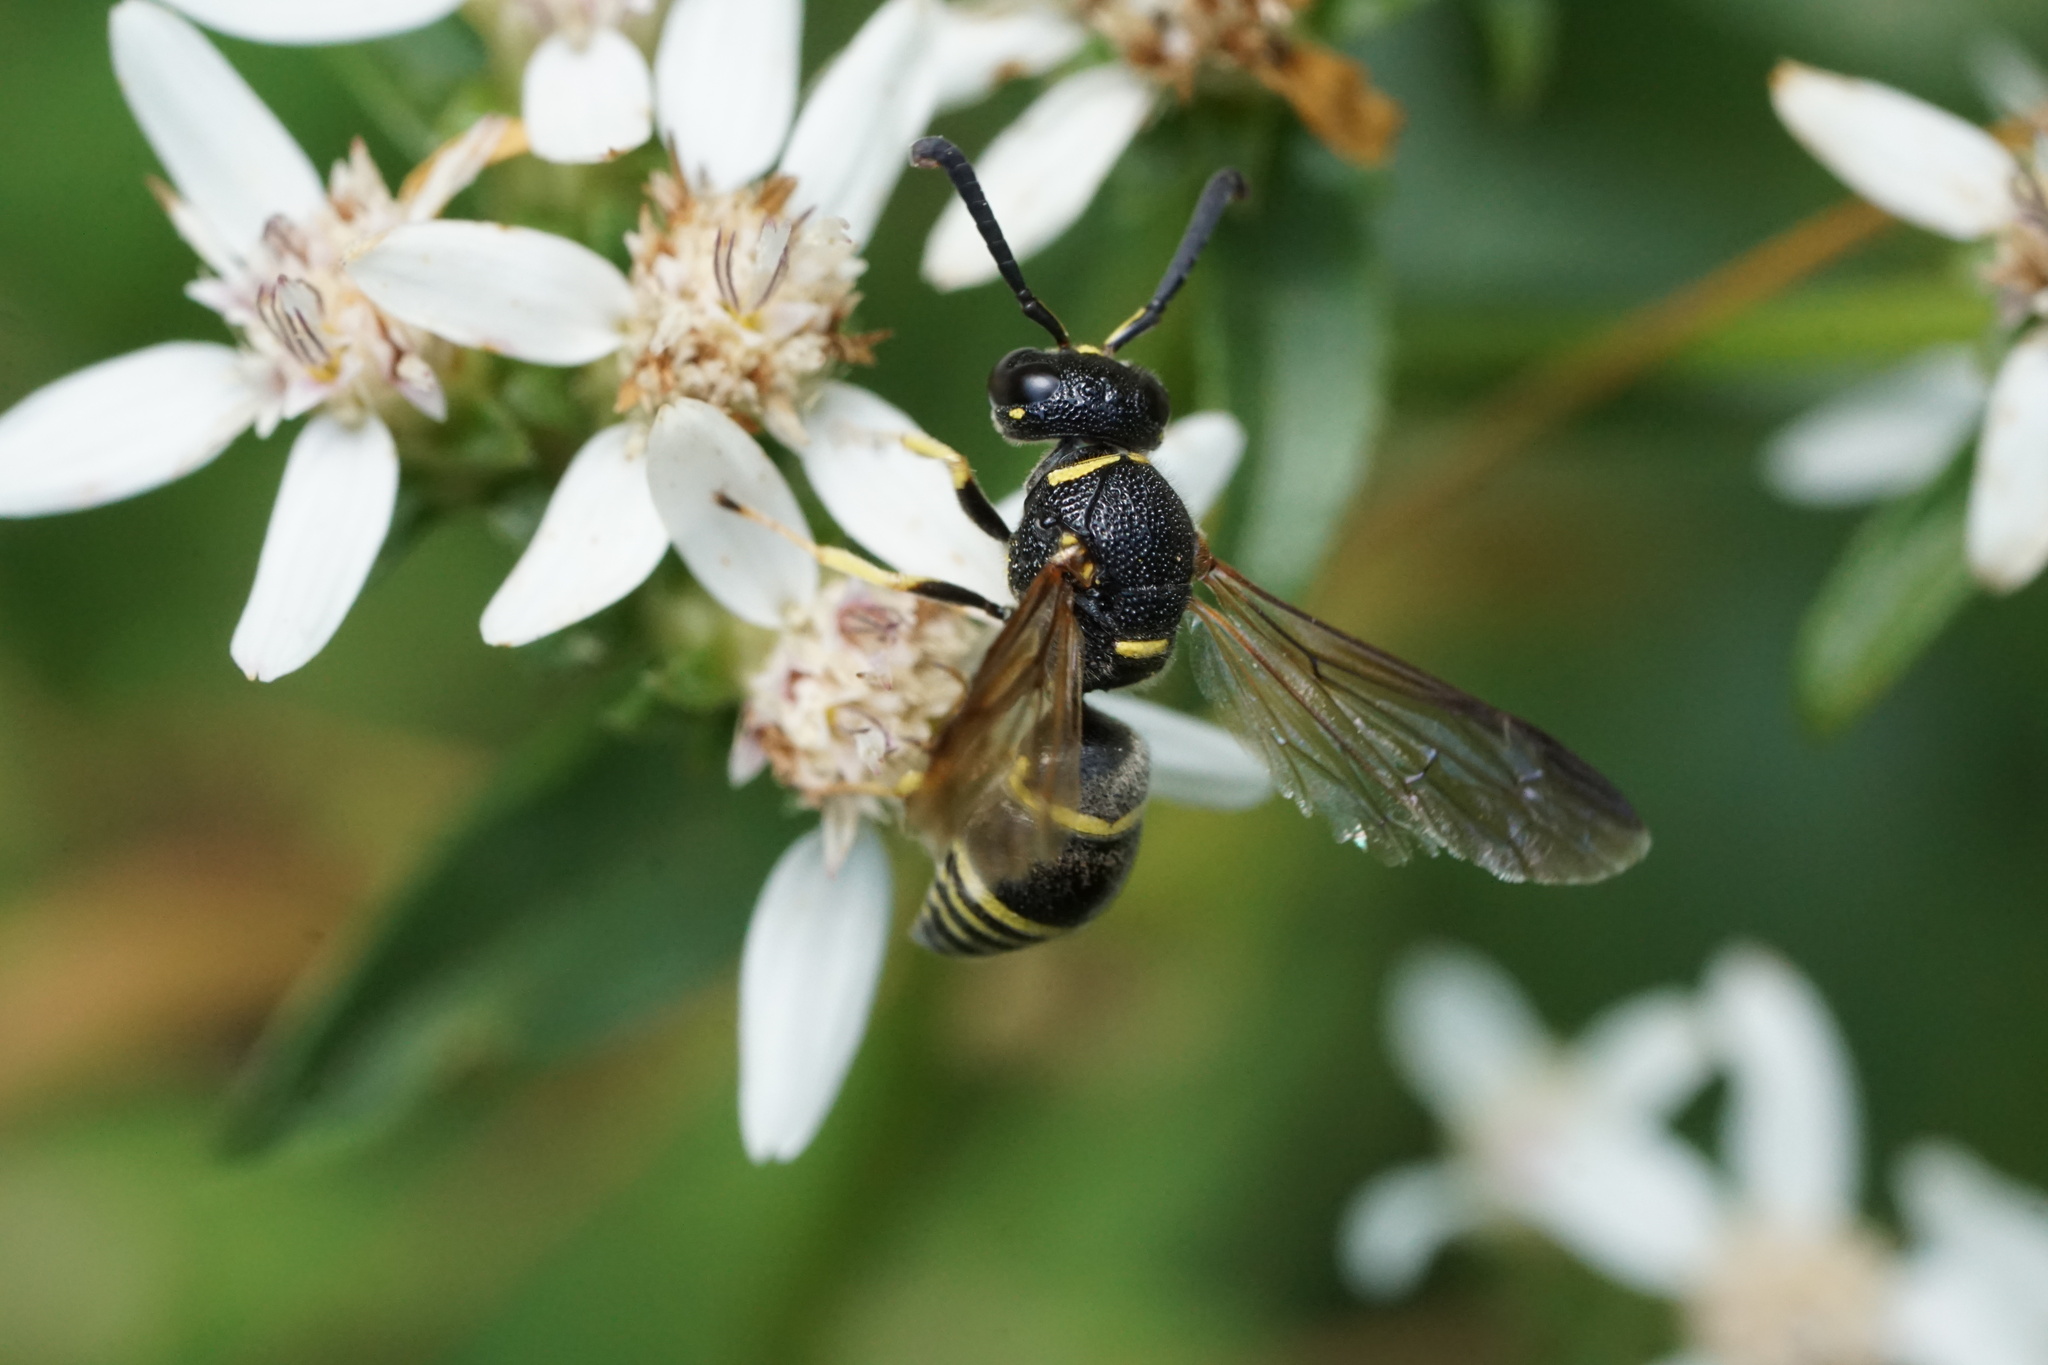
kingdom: Animalia
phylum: Arthropoda
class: Insecta
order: Hymenoptera
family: Eumenidae
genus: Euodynerus
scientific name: Euodynerus foraminatus
